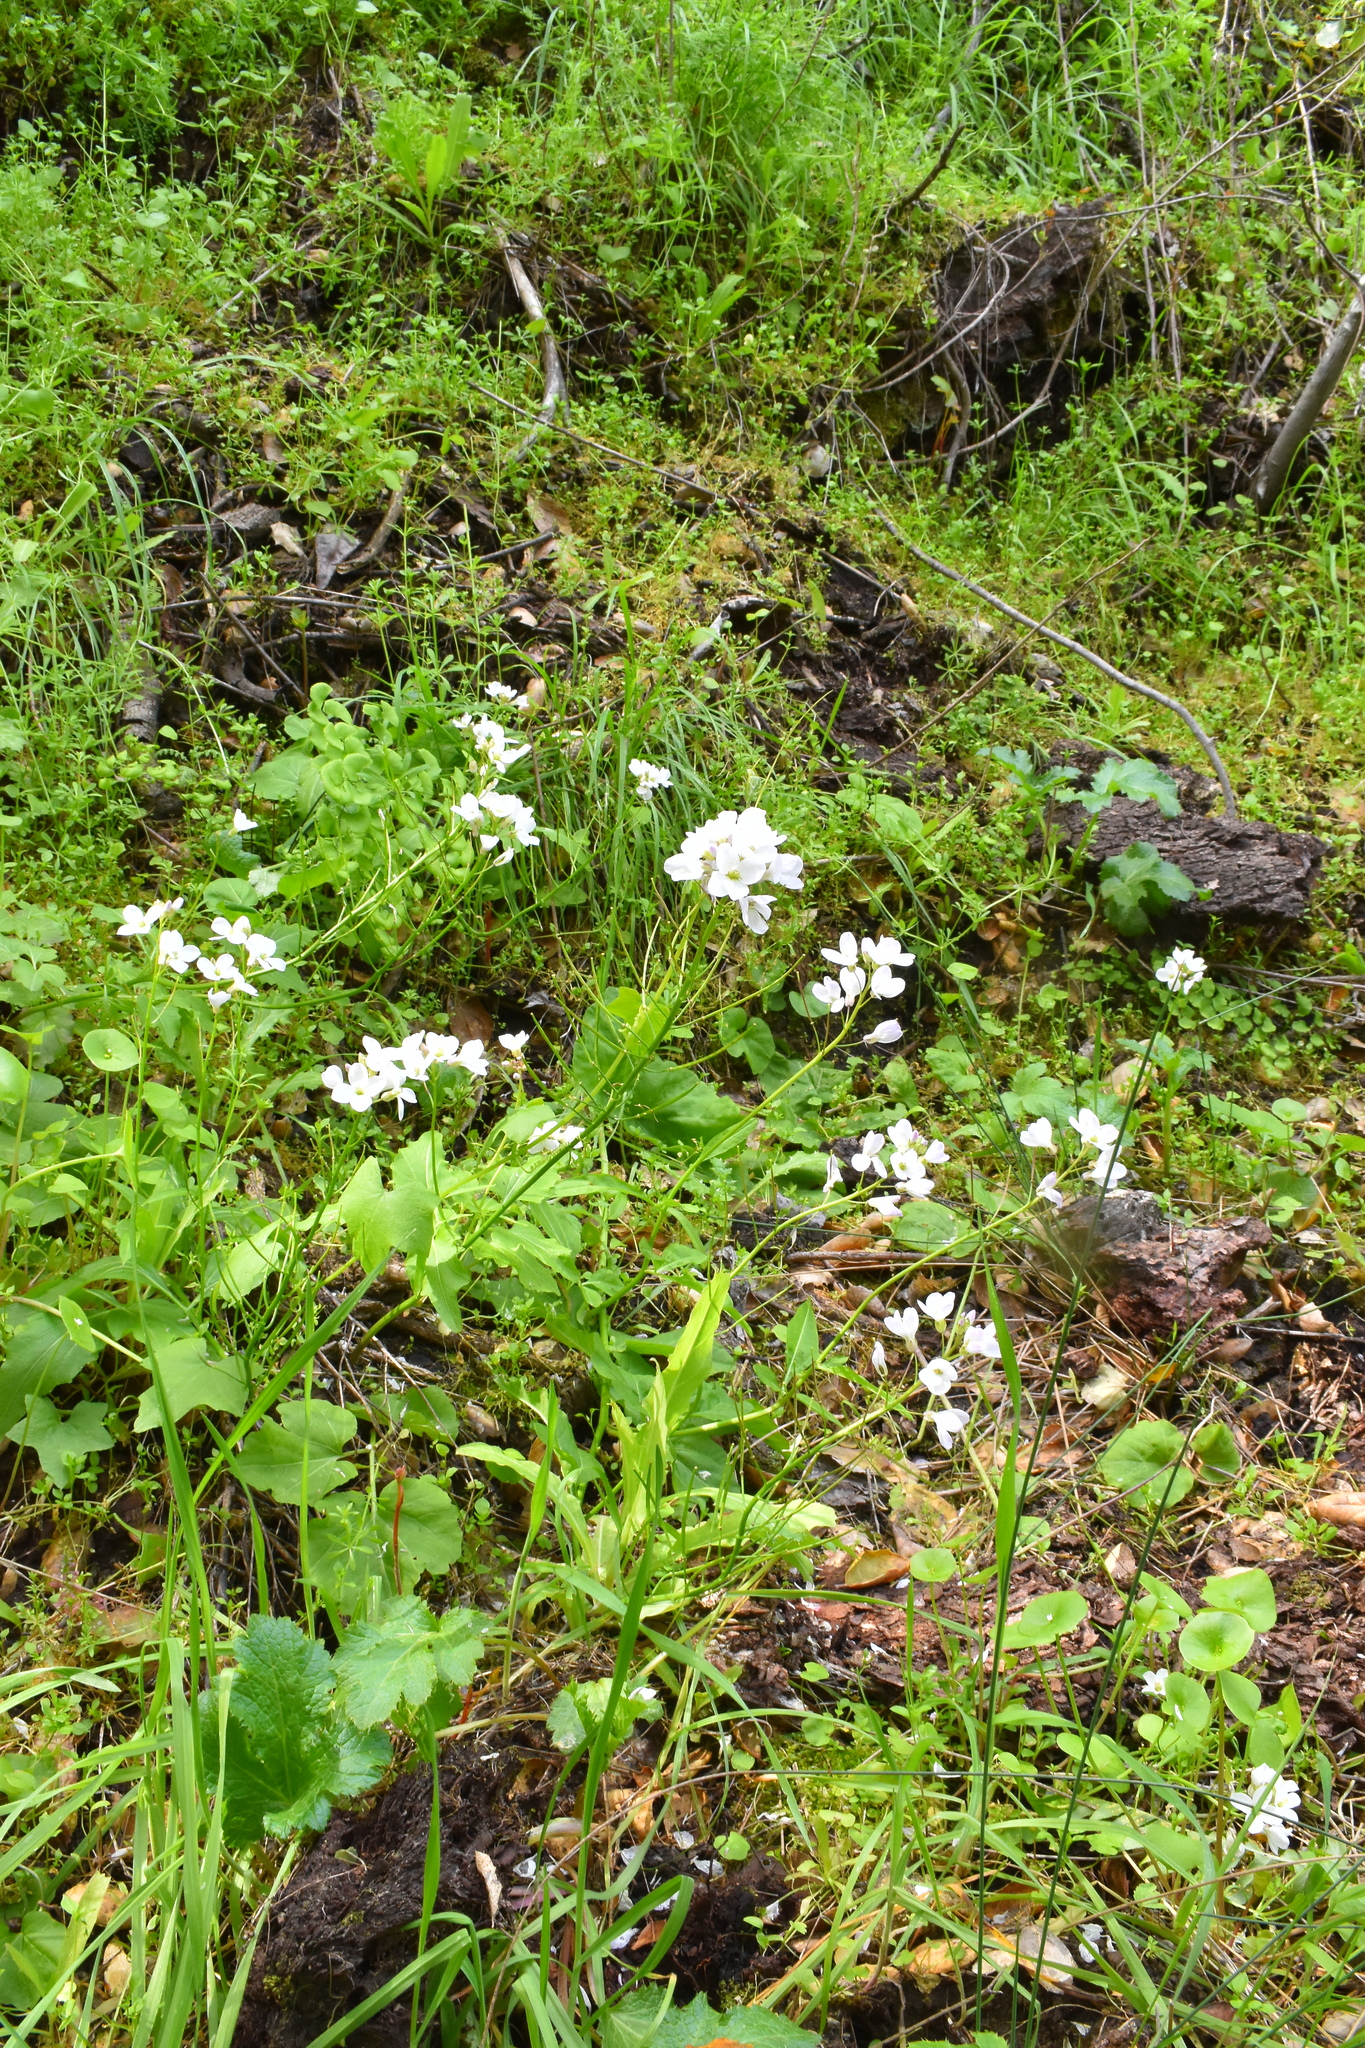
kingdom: Plantae
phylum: Tracheophyta
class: Magnoliopsida
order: Brassicales
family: Brassicaceae
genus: Cardamine
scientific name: Cardamine californica
